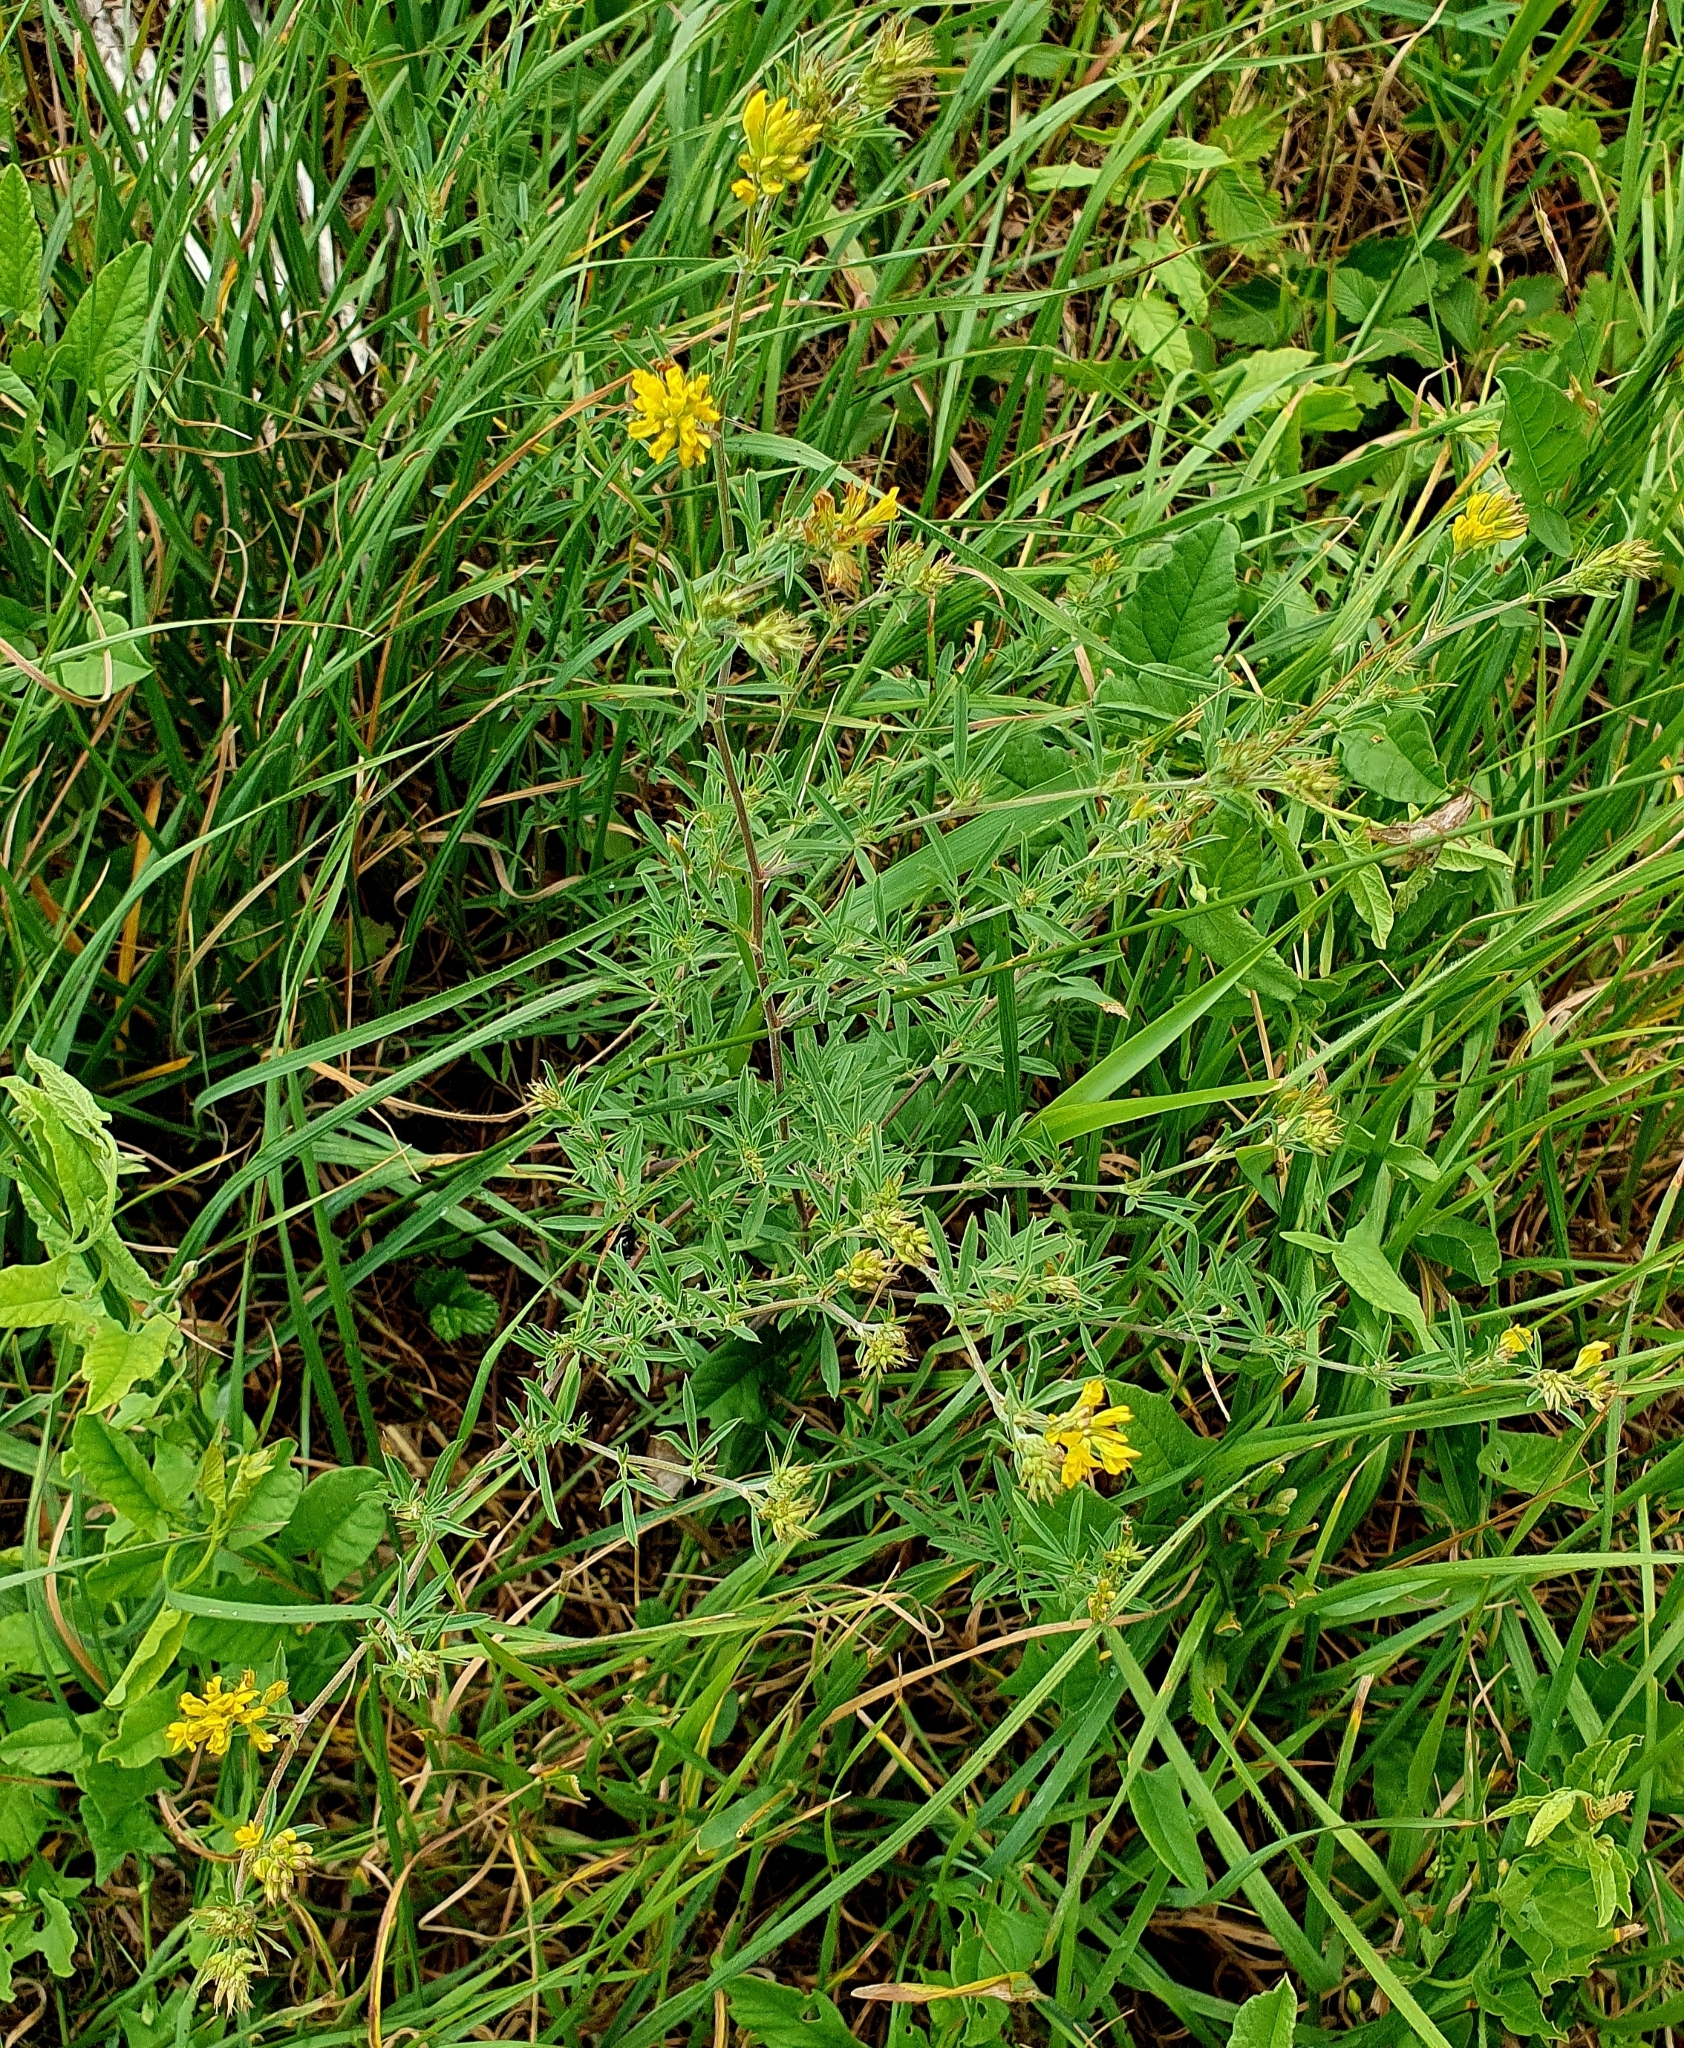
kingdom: Plantae
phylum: Tracheophyta
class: Magnoliopsida
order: Fabales
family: Fabaceae
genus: Medicago
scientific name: Medicago falcata
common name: Sickle medick
